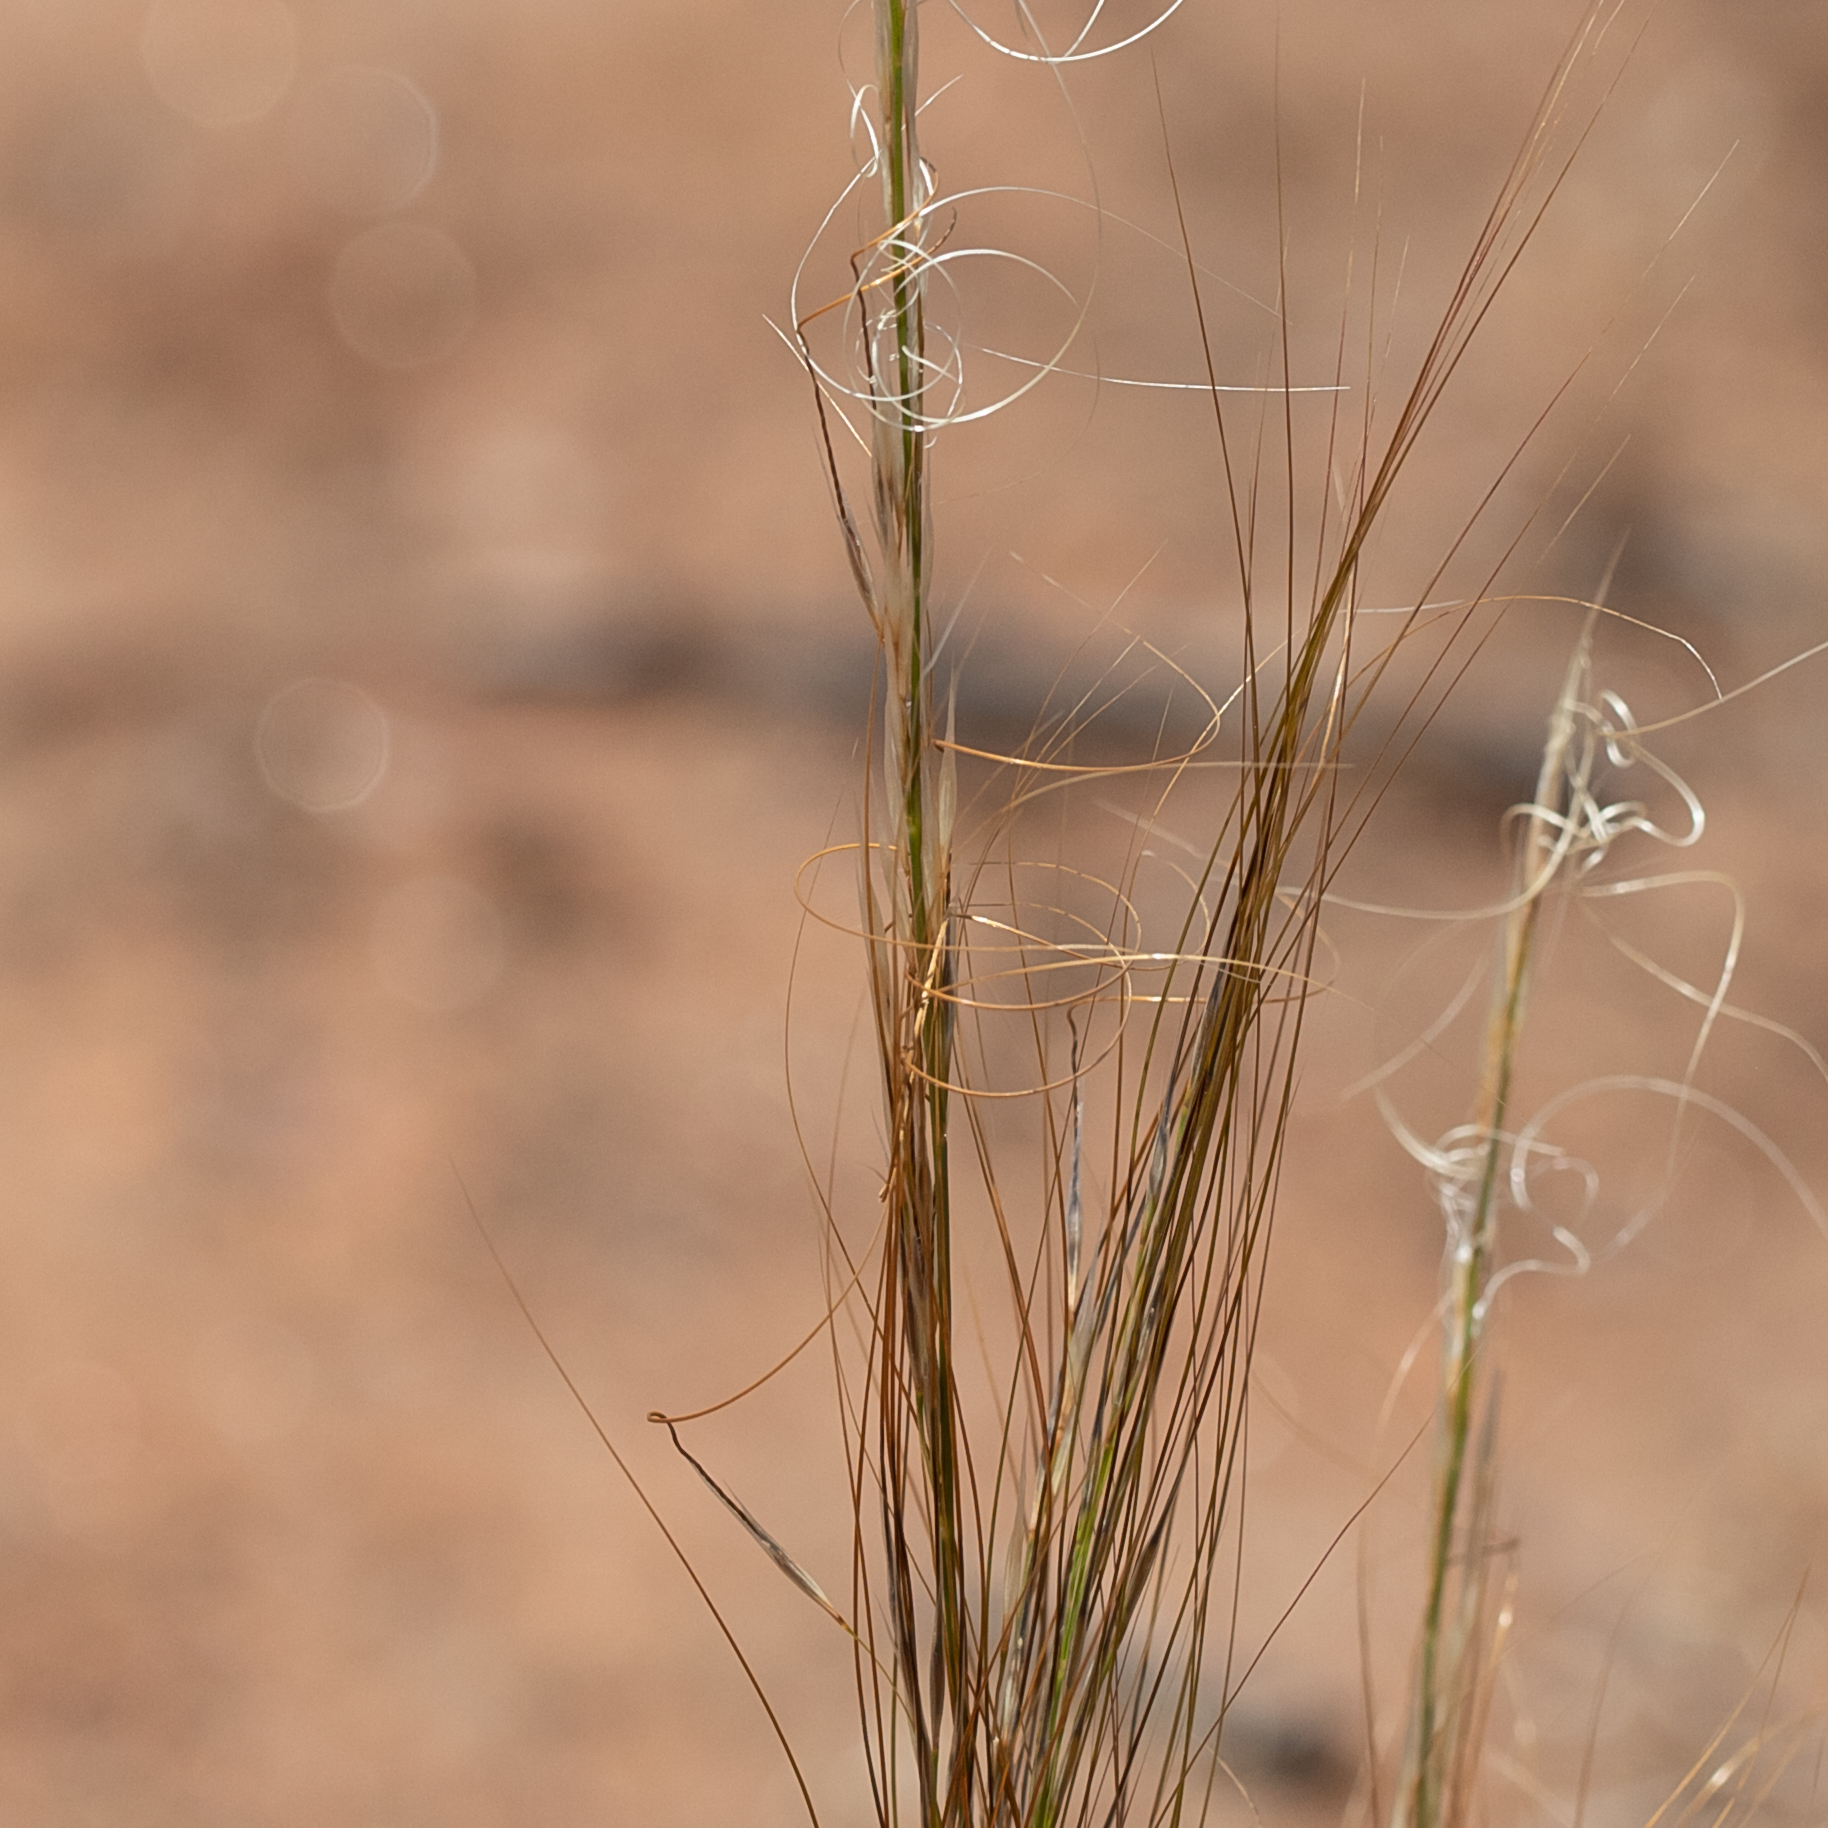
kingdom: Plantae
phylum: Tracheophyta
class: Liliopsida
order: Poales
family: Poaceae
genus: Austrostipa
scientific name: Austrostipa nitida
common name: Balcarra grass
